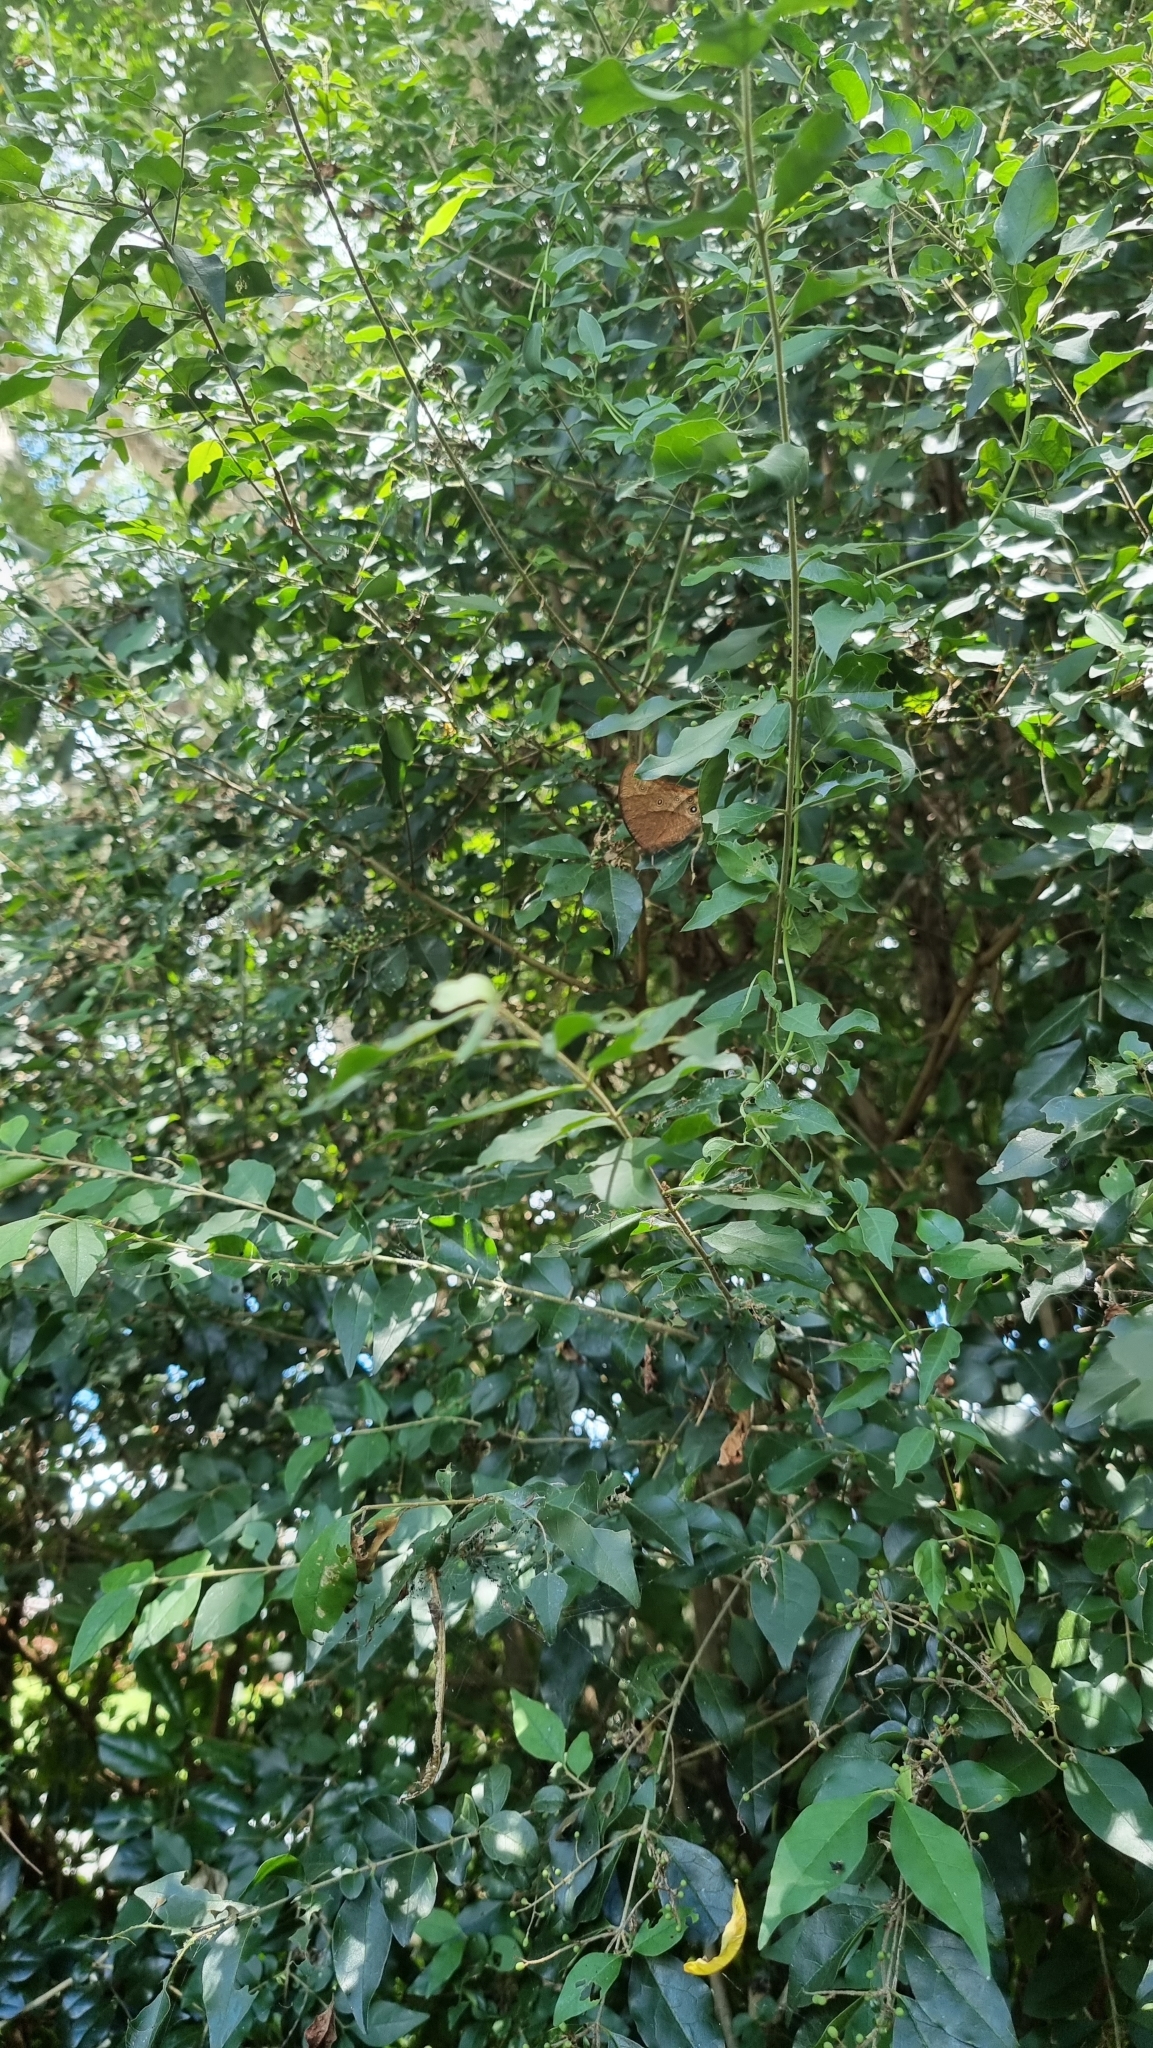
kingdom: Animalia
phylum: Arthropoda
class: Insecta
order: Lepidoptera
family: Nymphalidae
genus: Melanitis
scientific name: Melanitis leda
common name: Twilight brown
